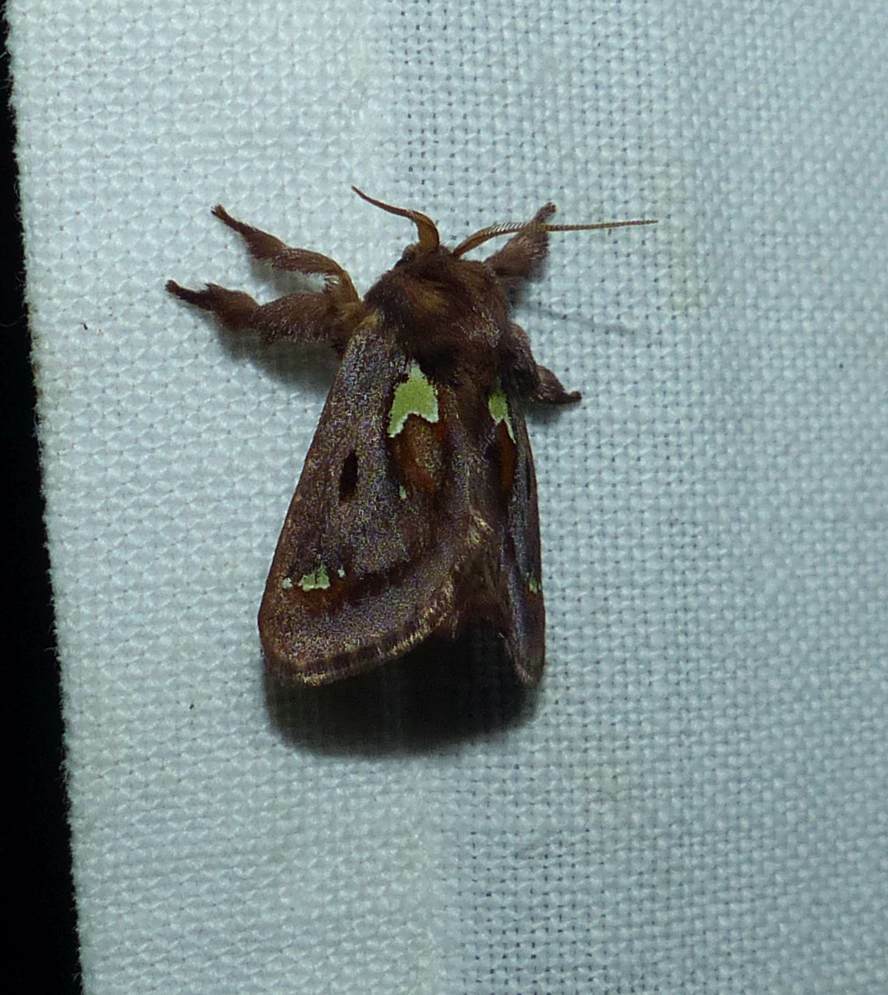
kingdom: Animalia
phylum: Arthropoda
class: Insecta
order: Lepidoptera
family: Limacodidae
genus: Euclea
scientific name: Euclea delphinii
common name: Spiny oak-slug moth
